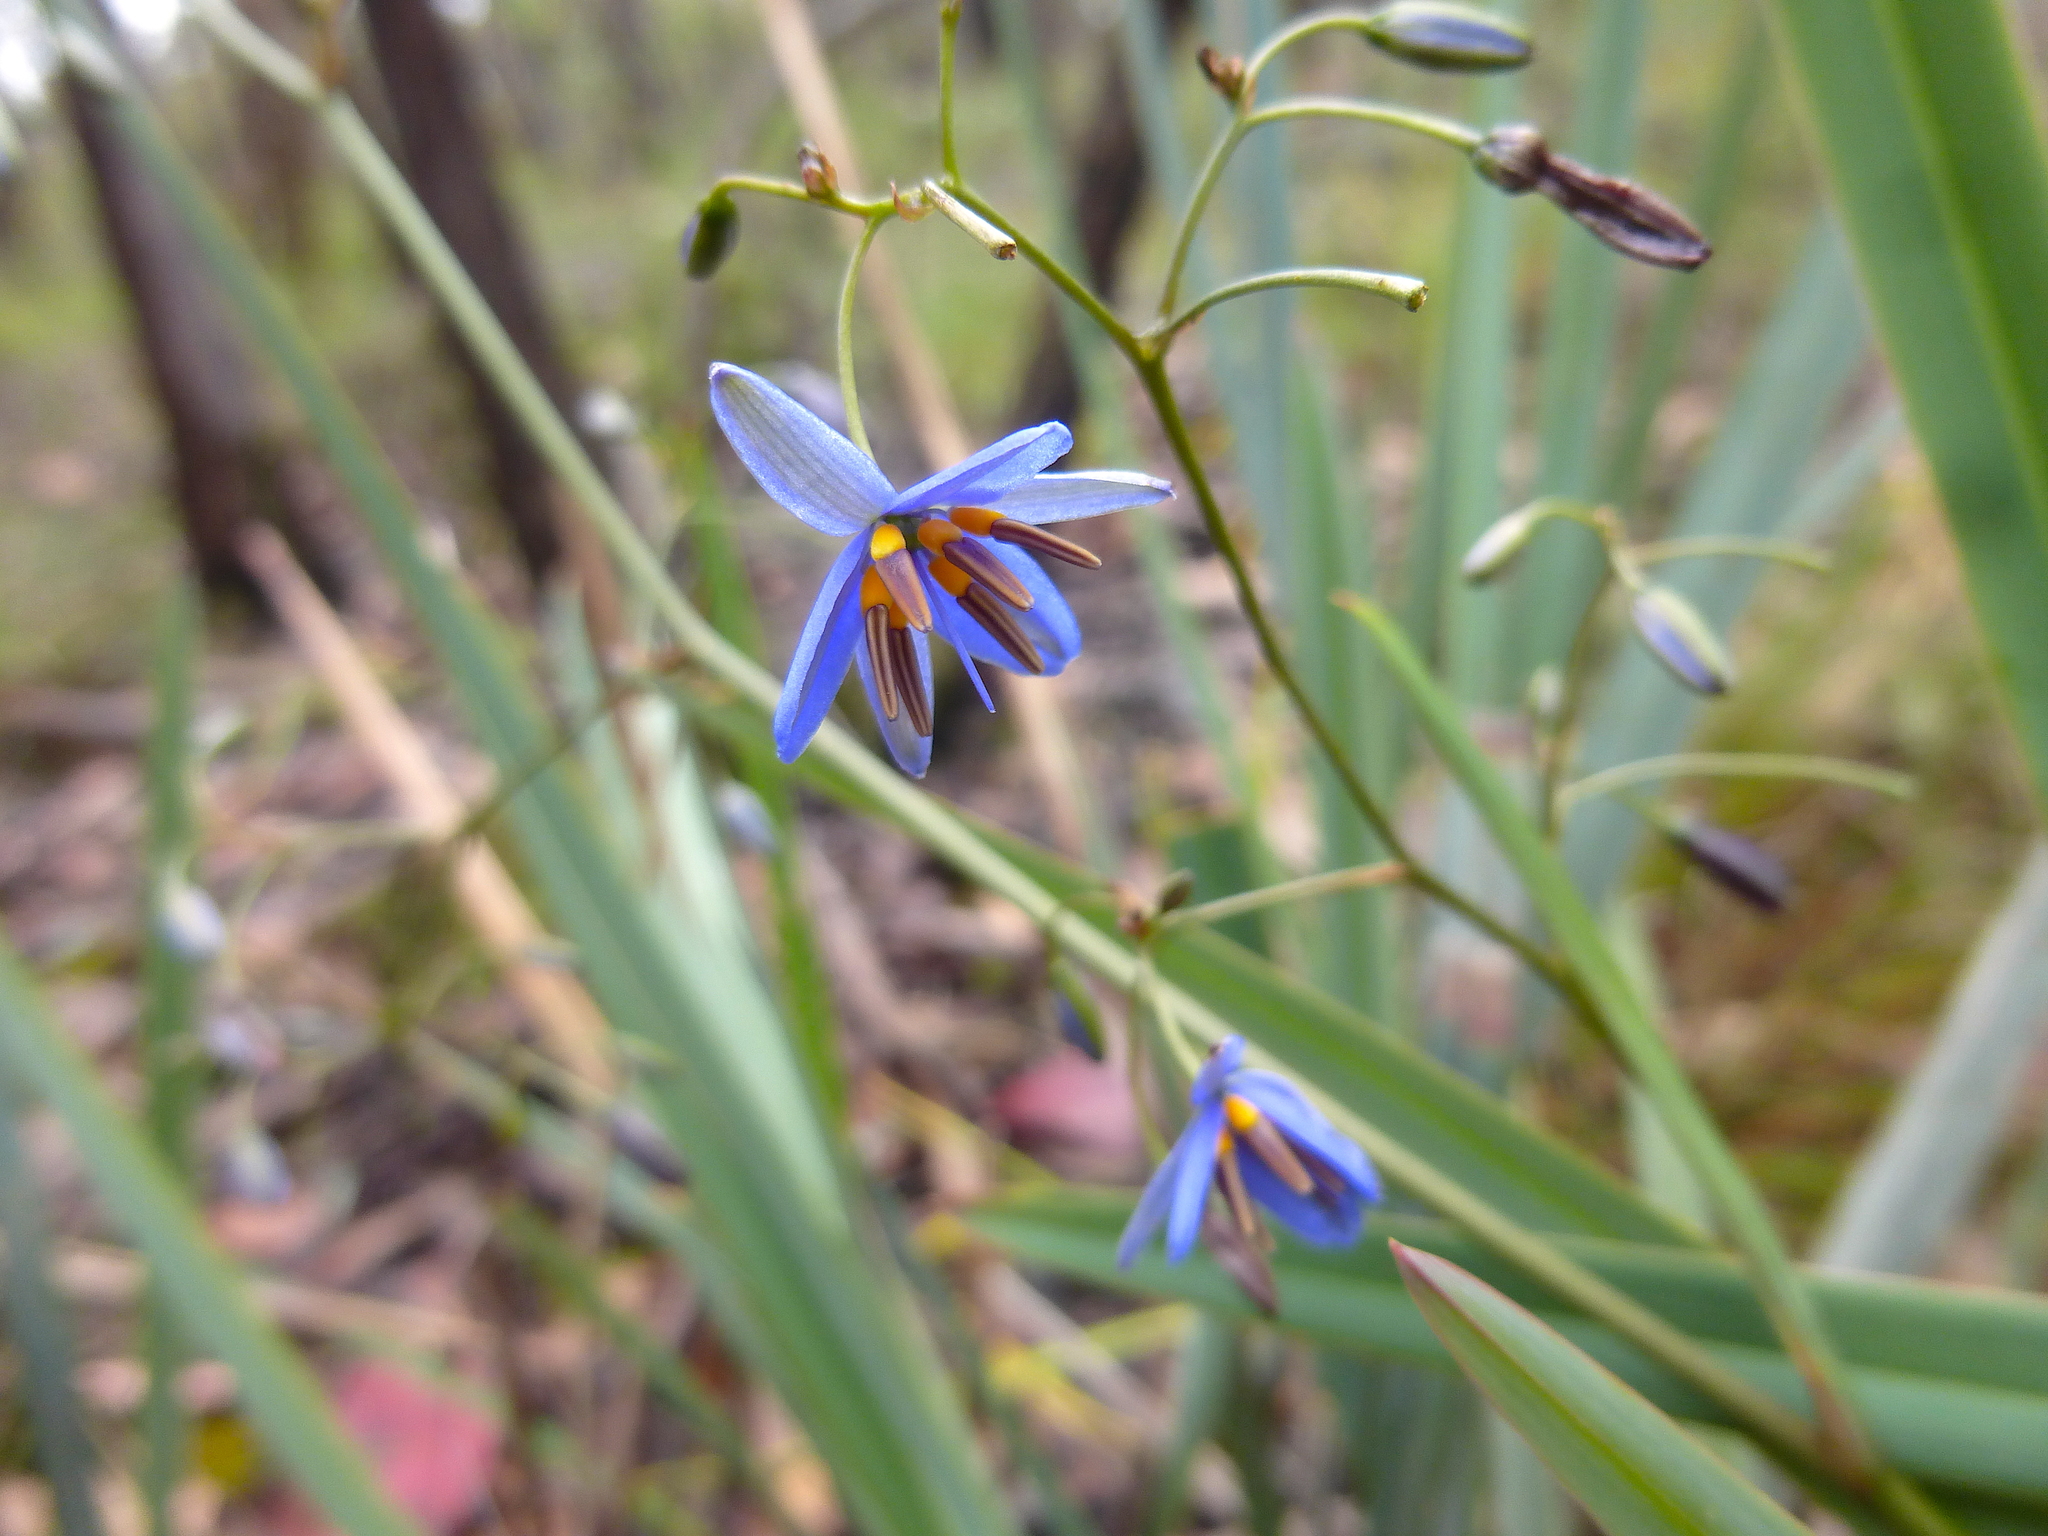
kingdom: Plantae
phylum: Tracheophyta
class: Liliopsida
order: Asparagales
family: Asphodelaceae
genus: Dianella
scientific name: Dianella revoluta
